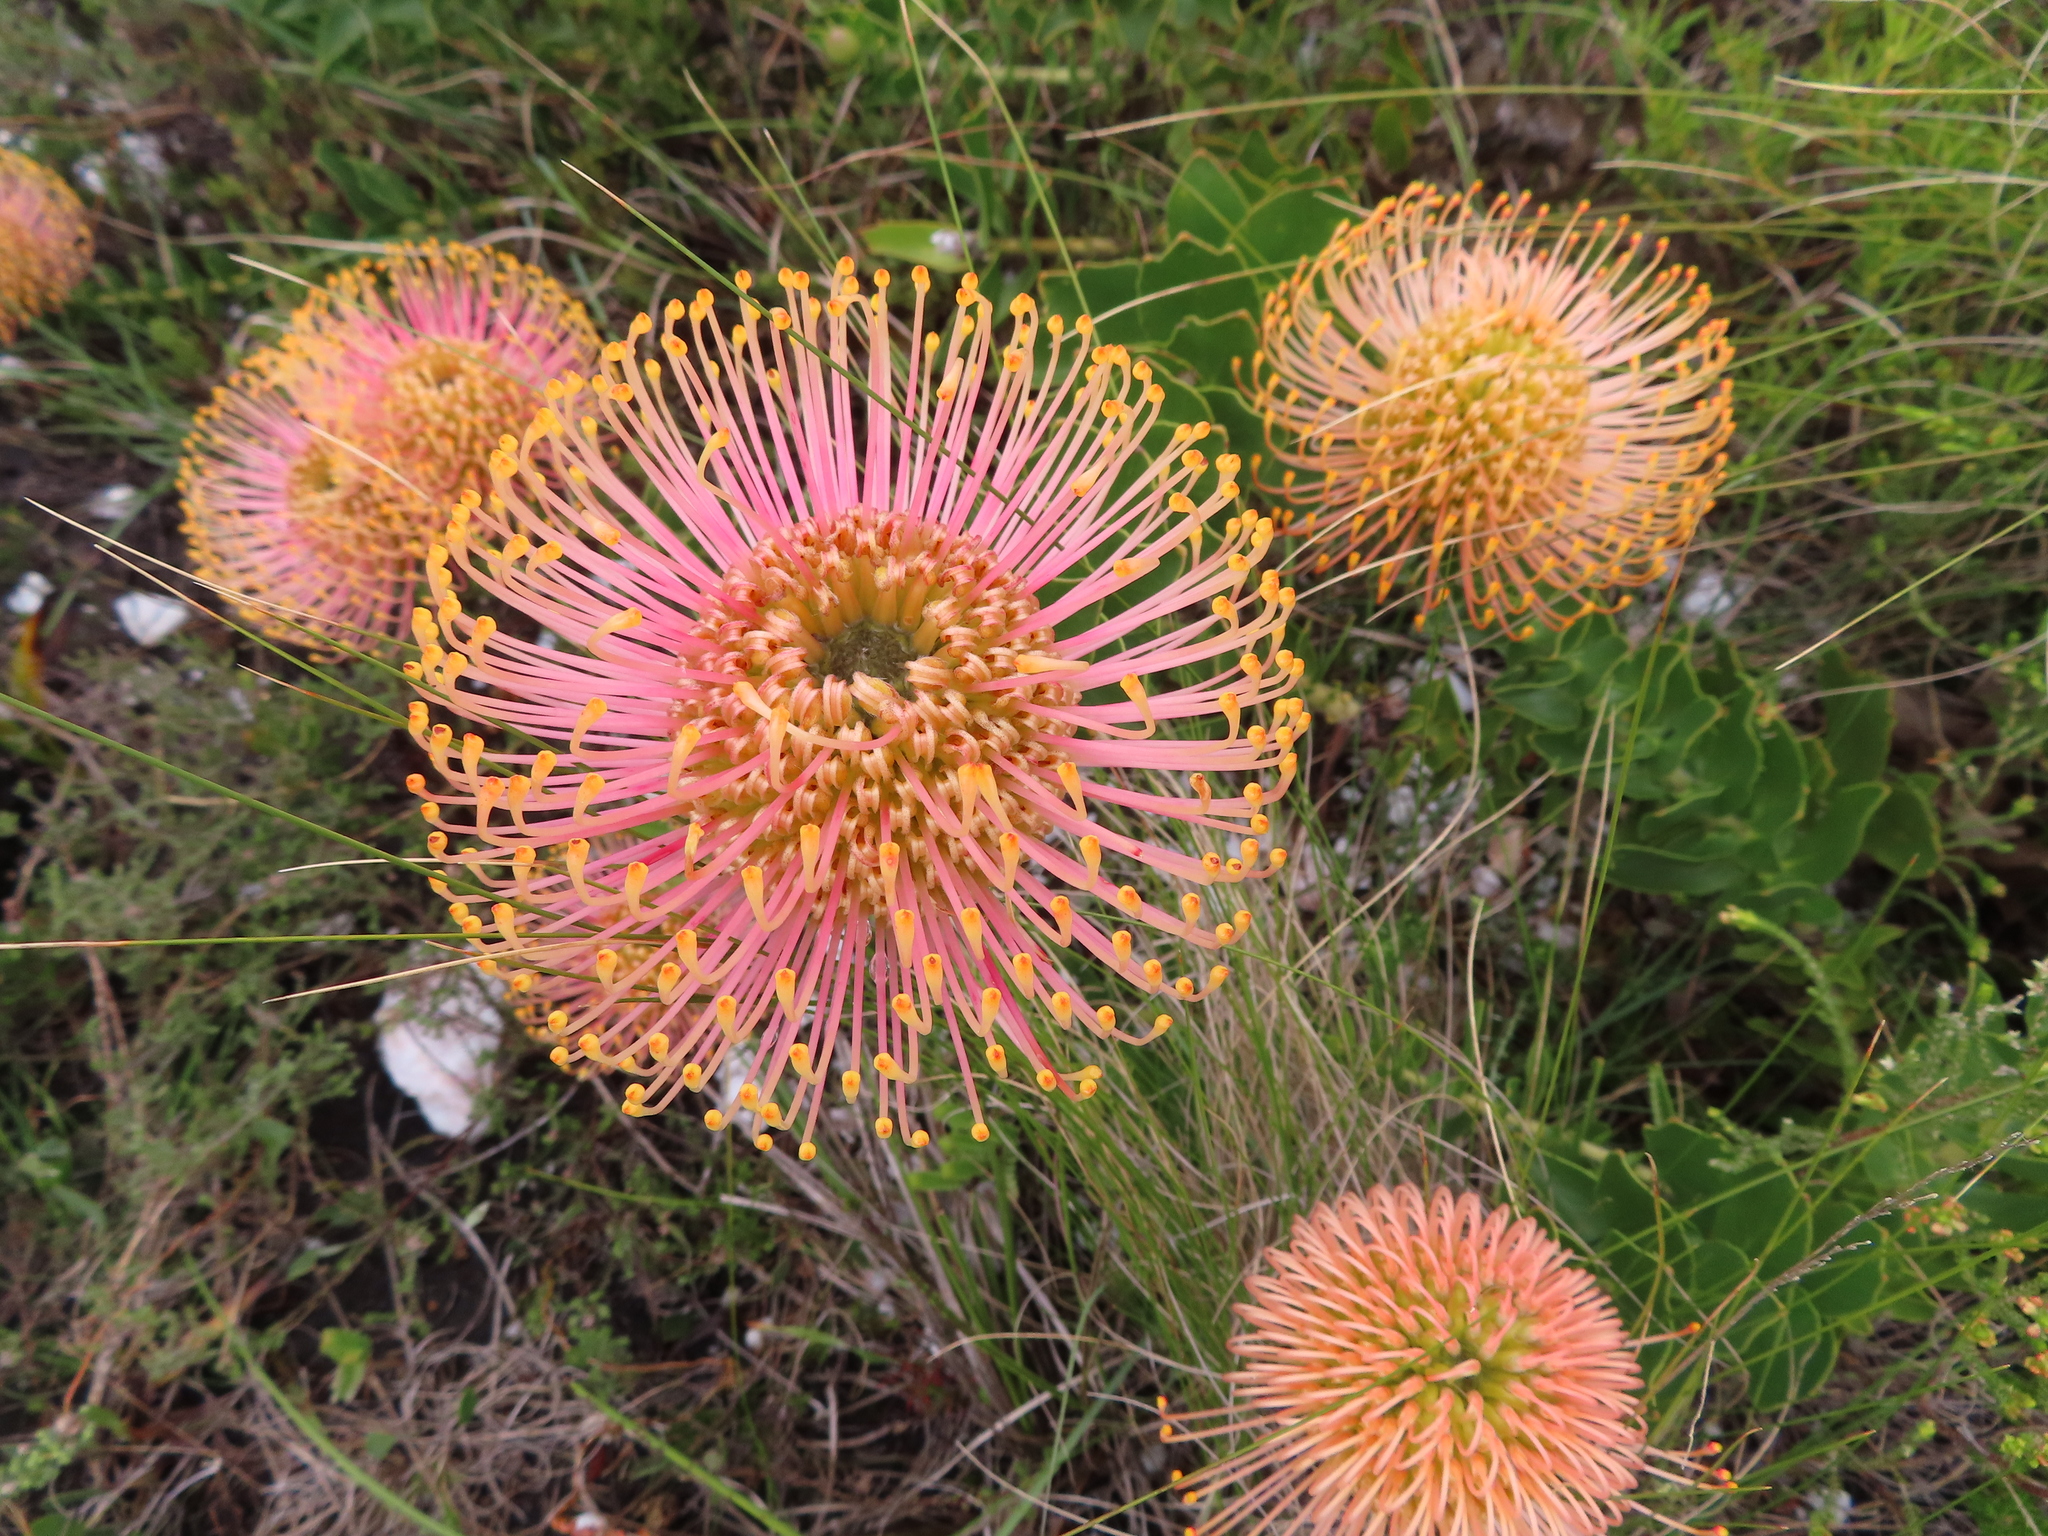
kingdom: Plantae
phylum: Tracheophyta
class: Magnoliopsida
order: Proteales
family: Proteaceae
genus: Leucospermum
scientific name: Leucospermum cordifolium
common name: Red pincushion-protea
